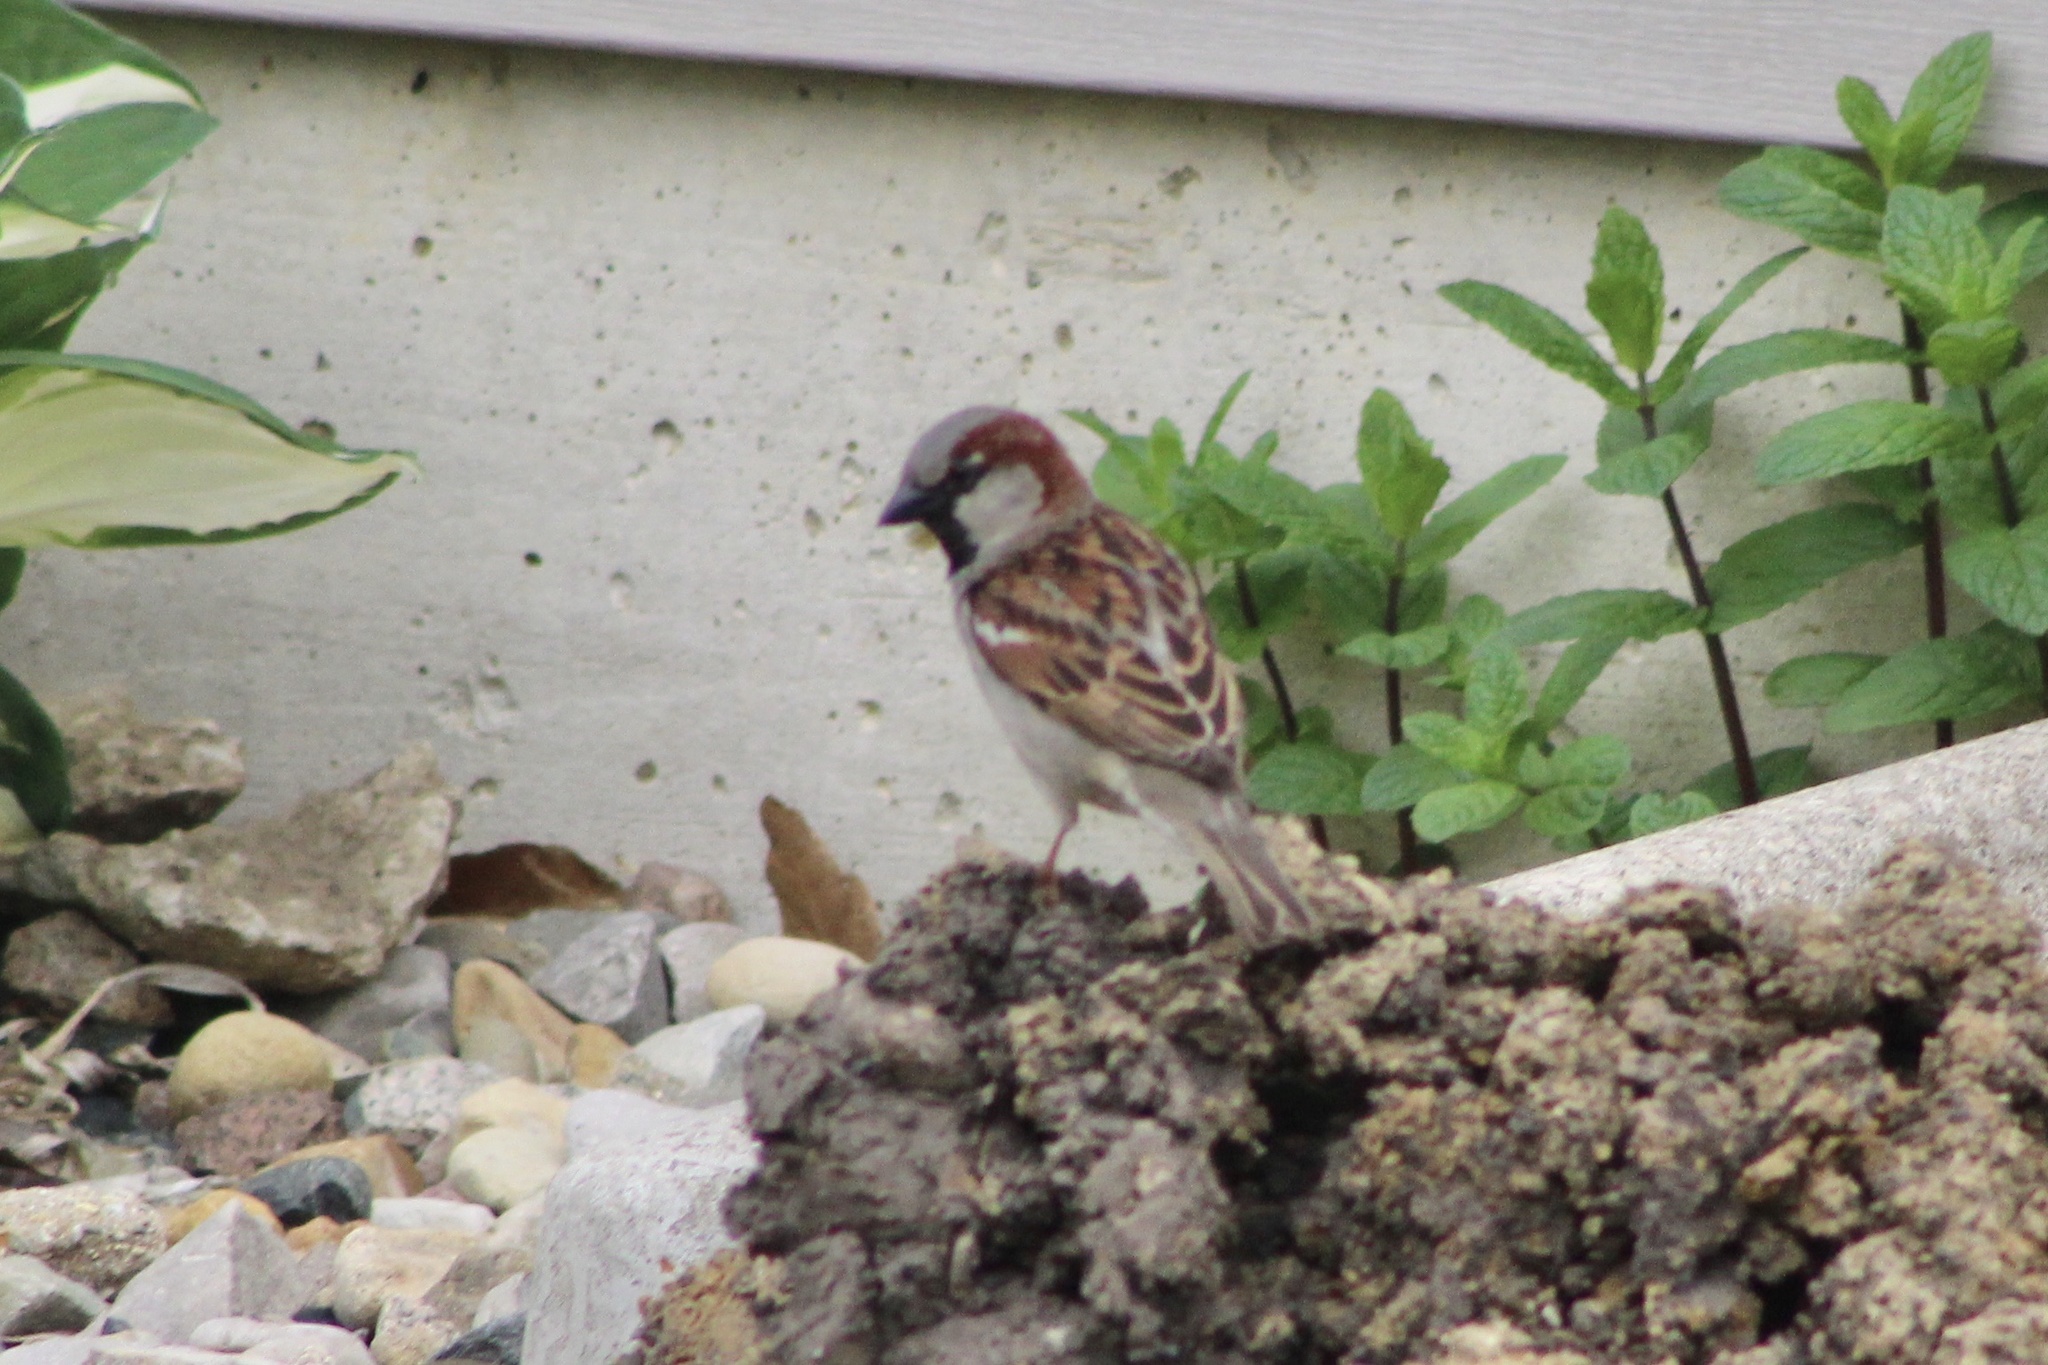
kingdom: Animalia
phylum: Chordata
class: Aves
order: Passeriformes
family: Passeridae
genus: Passer
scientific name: Passer domesticus
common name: House sparrow
